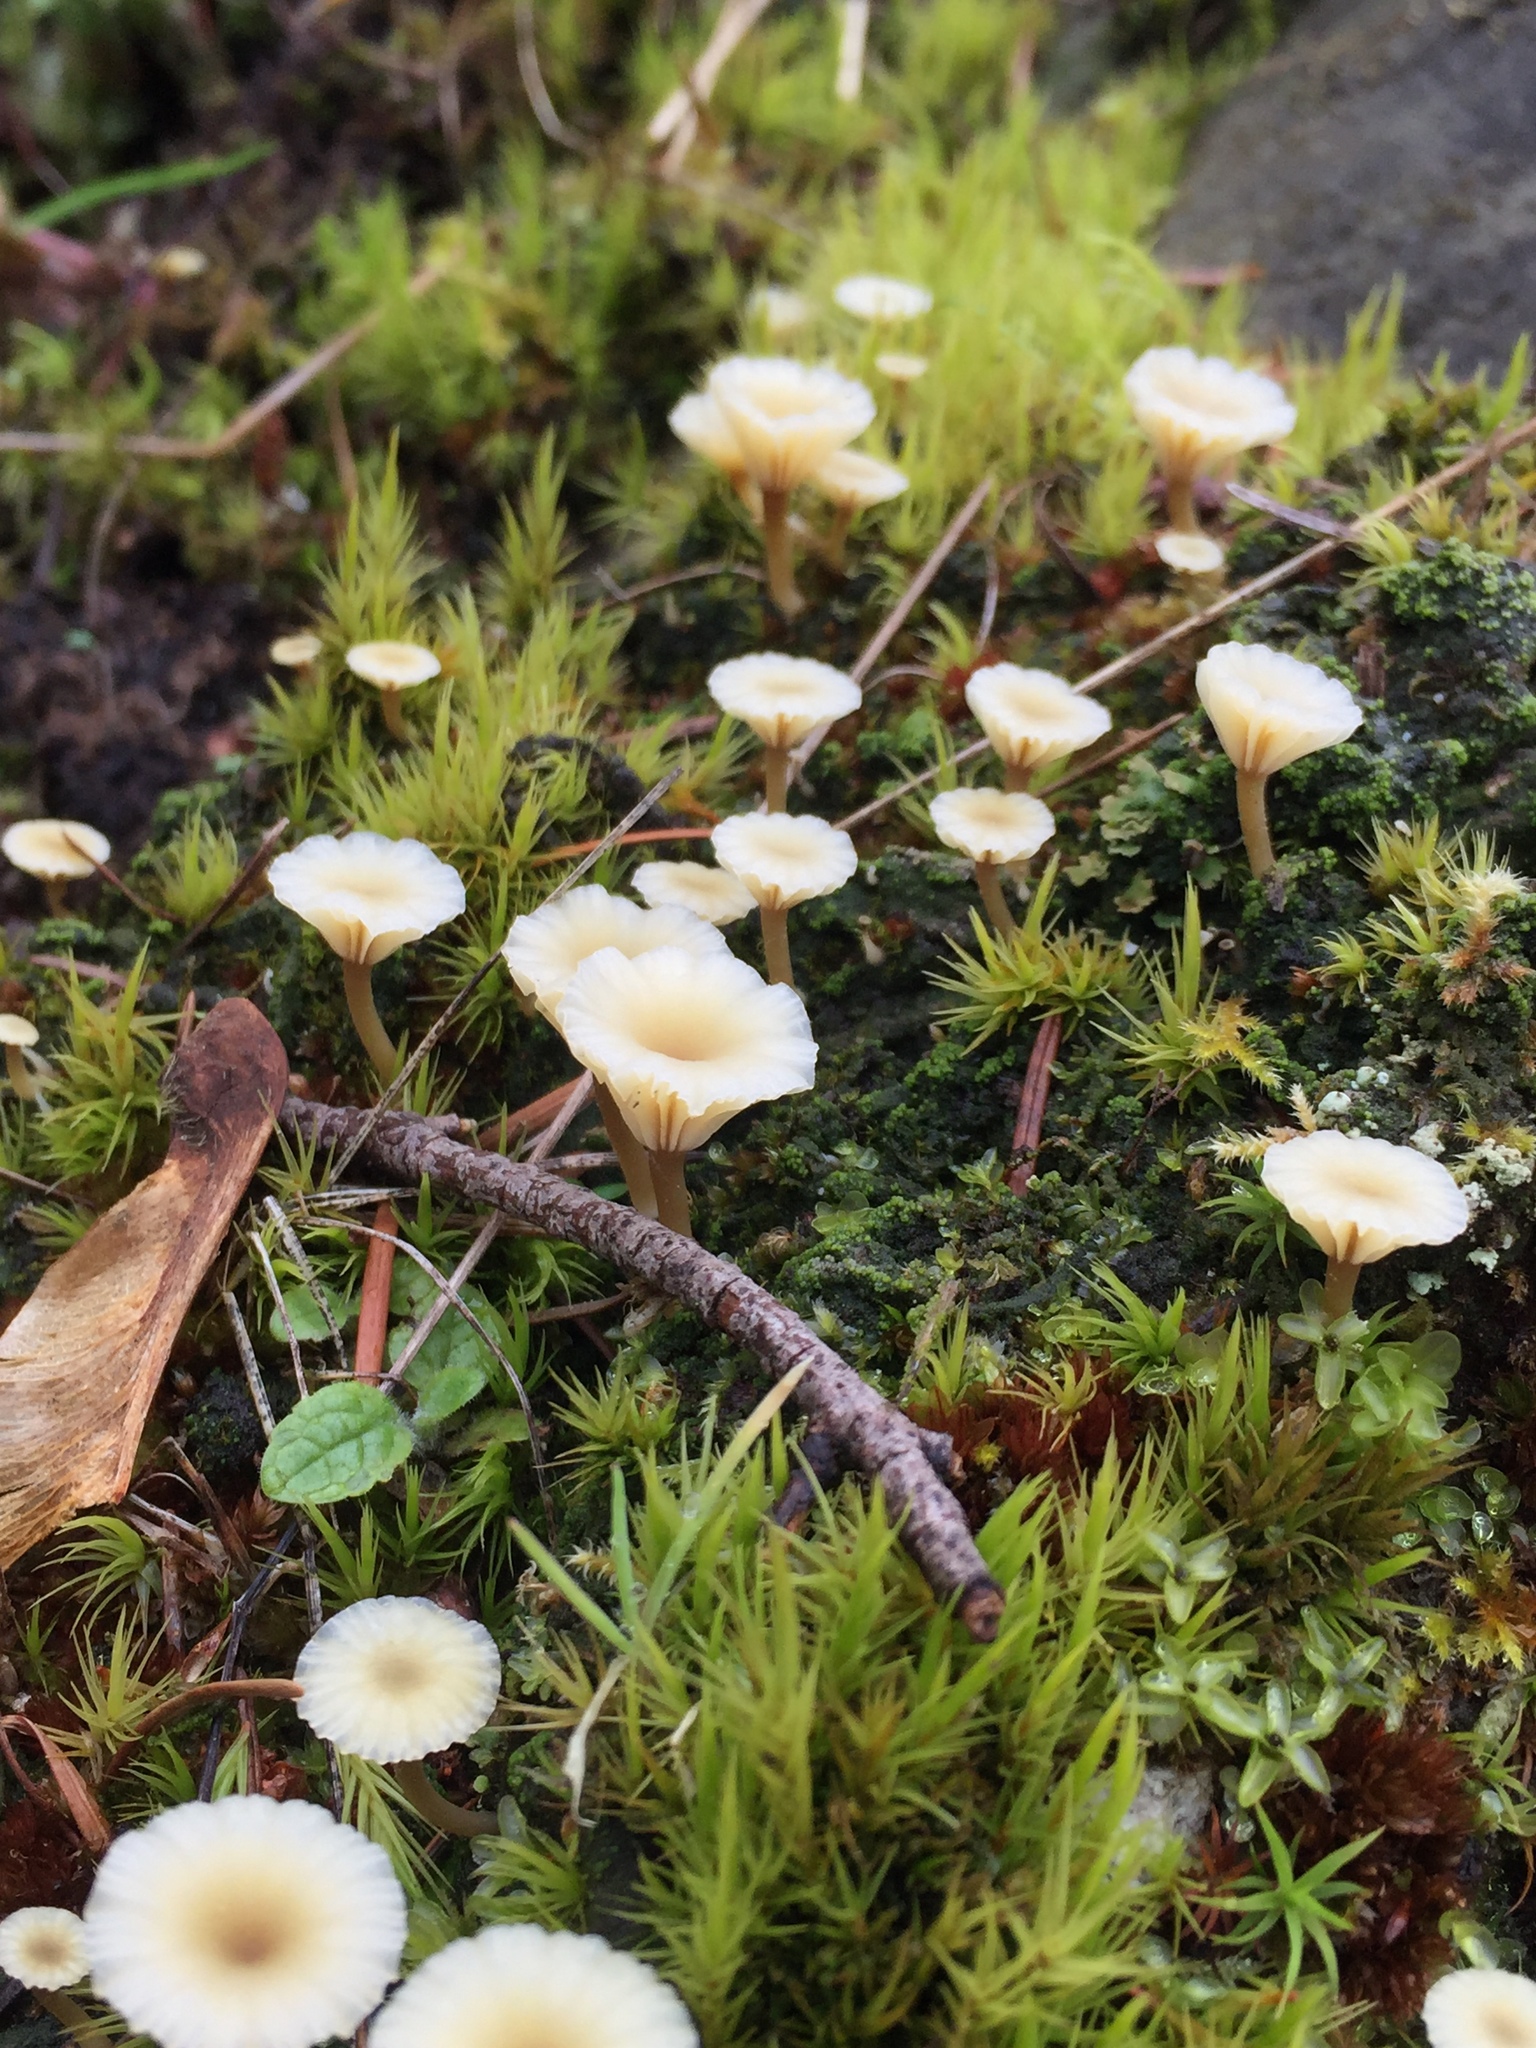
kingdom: Fungi
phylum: Basidiomycota
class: Agaricomycetes
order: Agaricales
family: Hygrophoraceae
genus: Lichenomphalia
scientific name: Lichenomphalia
